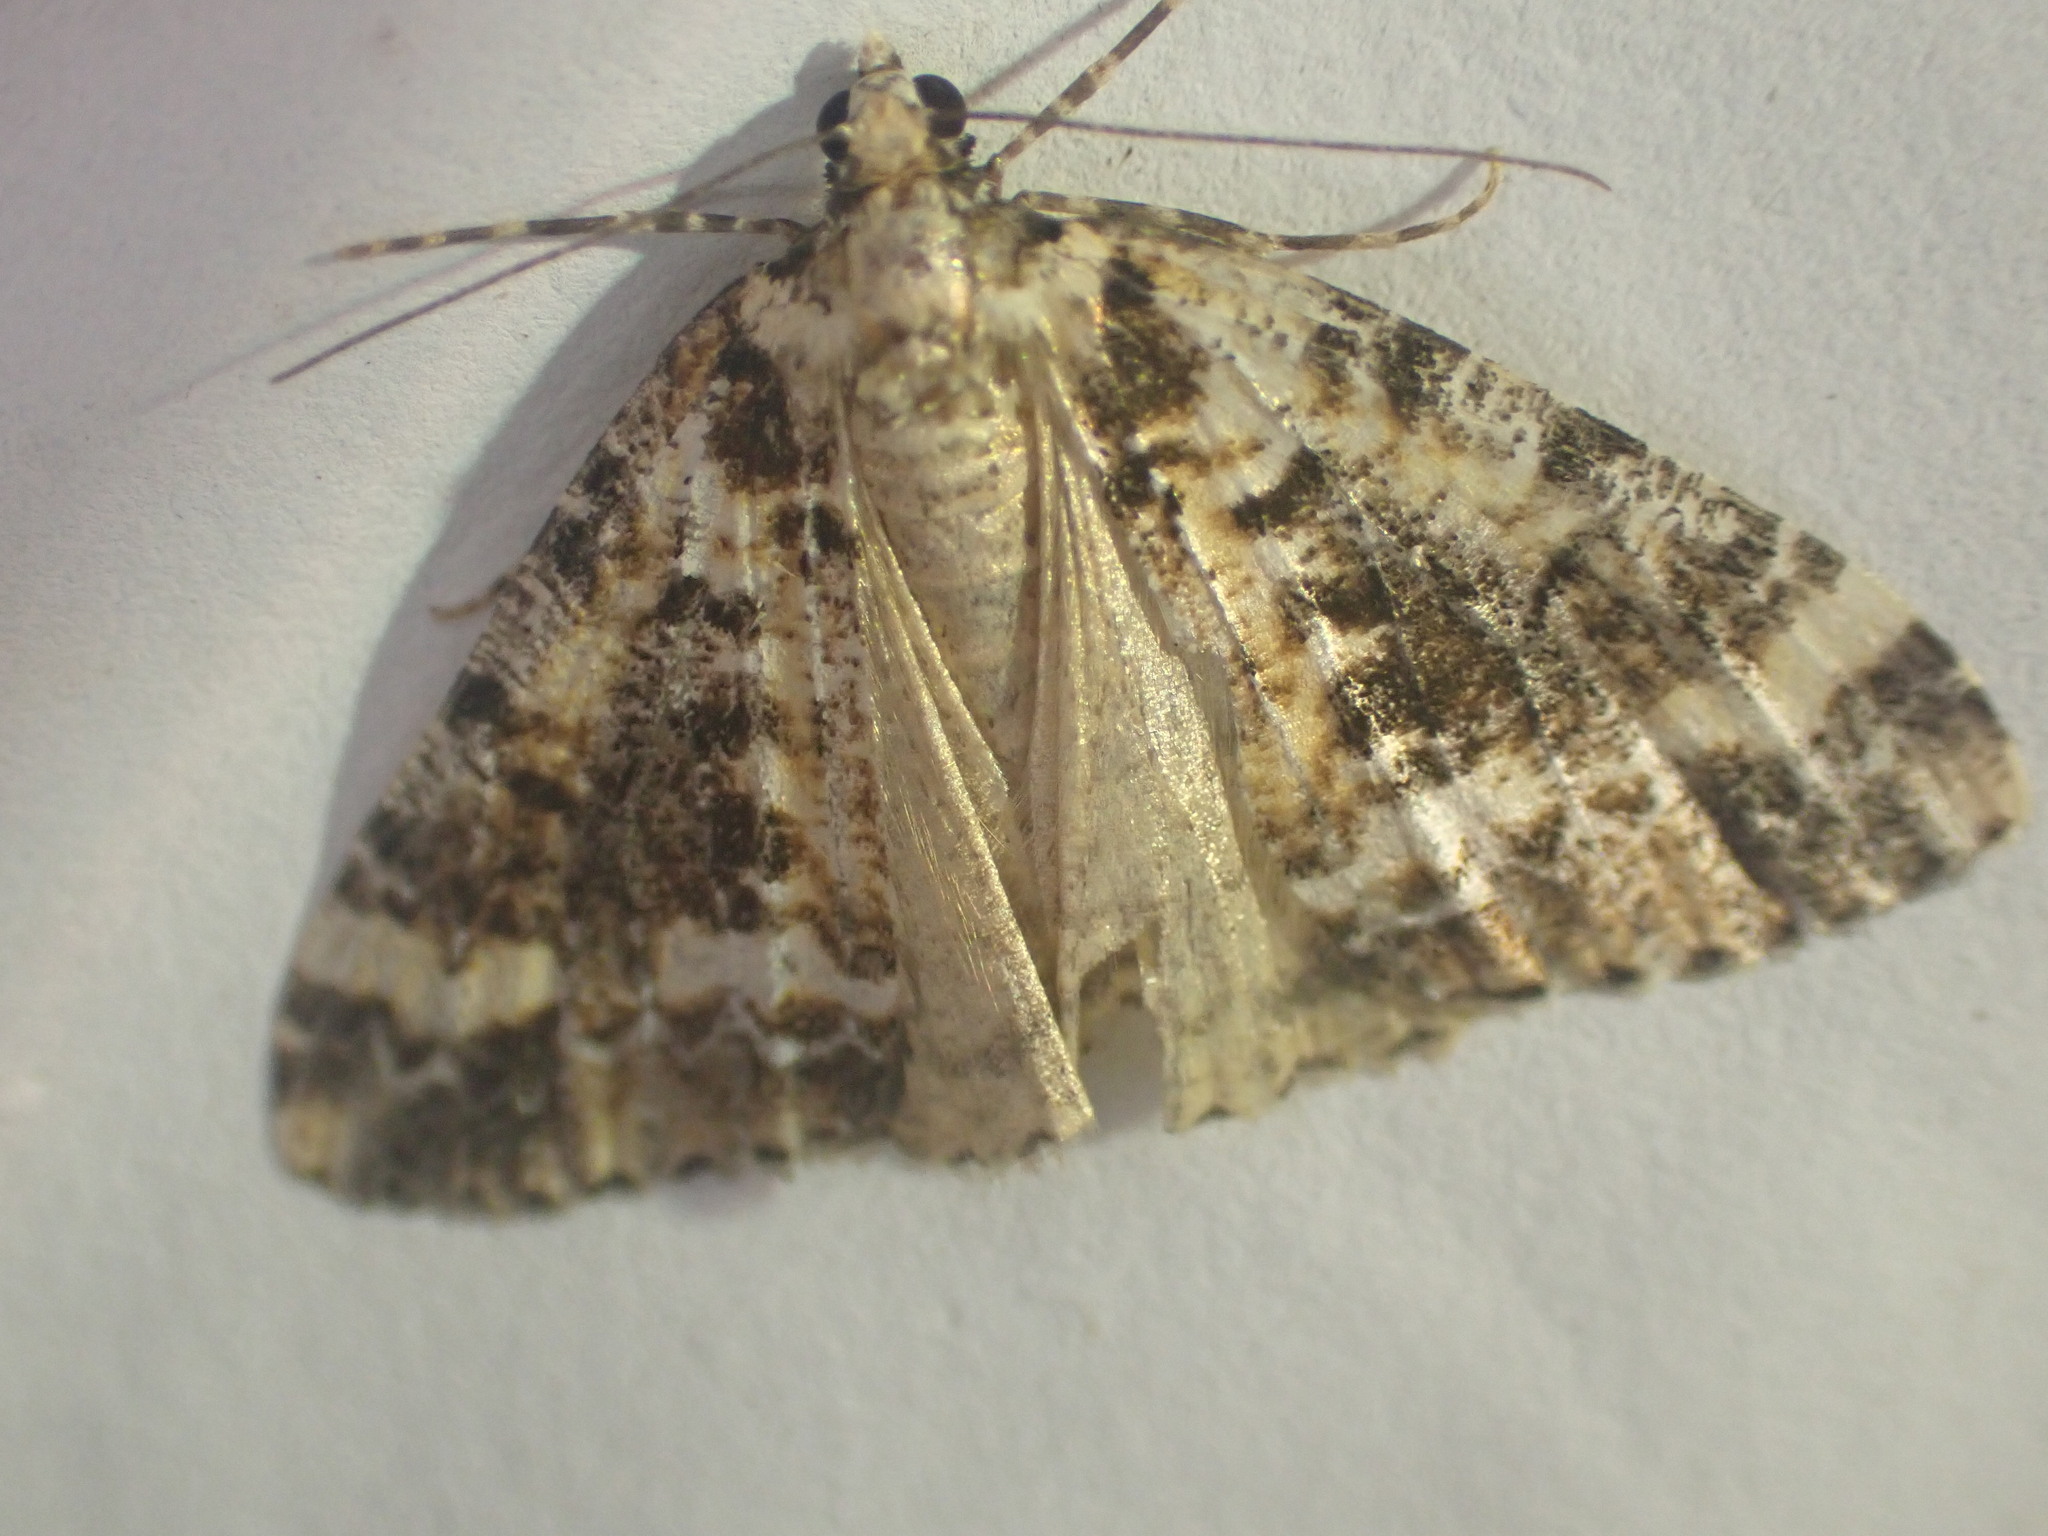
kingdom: Animalia
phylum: Arthropoda
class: Insecta
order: Lepidoptera
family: Geometridae
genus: Pseudocoremia
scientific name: Pseudocoremia leucelaea
